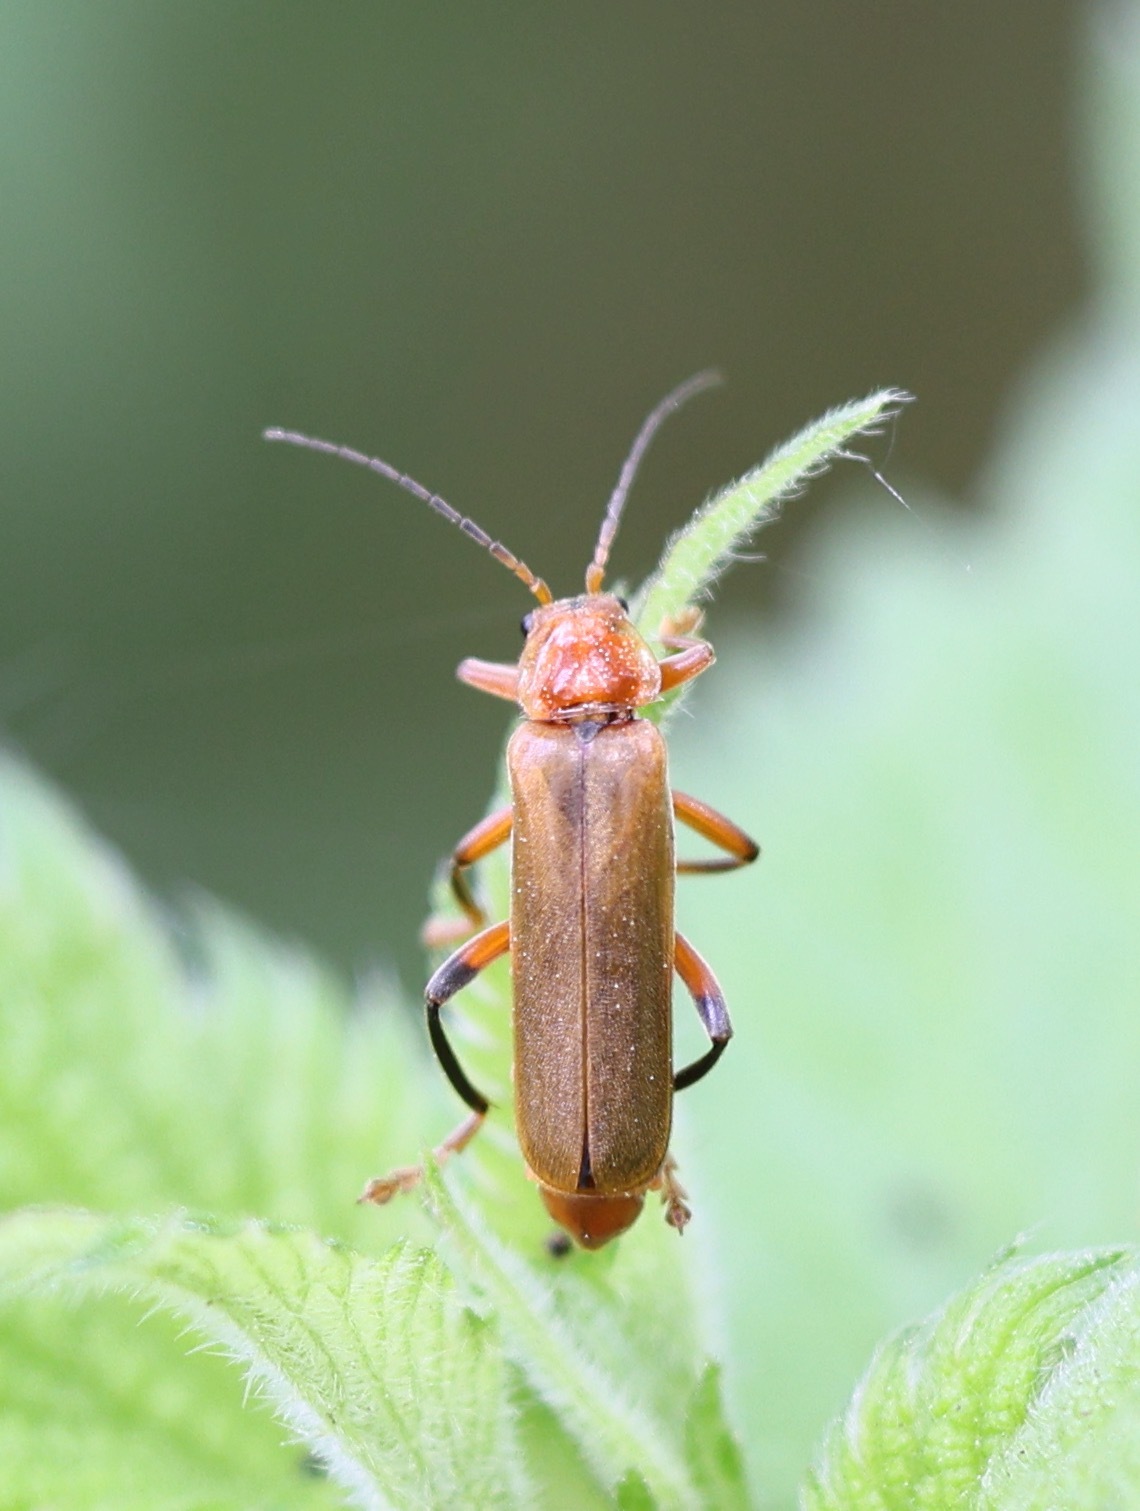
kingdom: Animalia
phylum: Arthropoda
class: Insecta
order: Coleoptera
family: Cantharidae
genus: Cantharis
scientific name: Cantharis livida
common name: Livid soldier beetle
